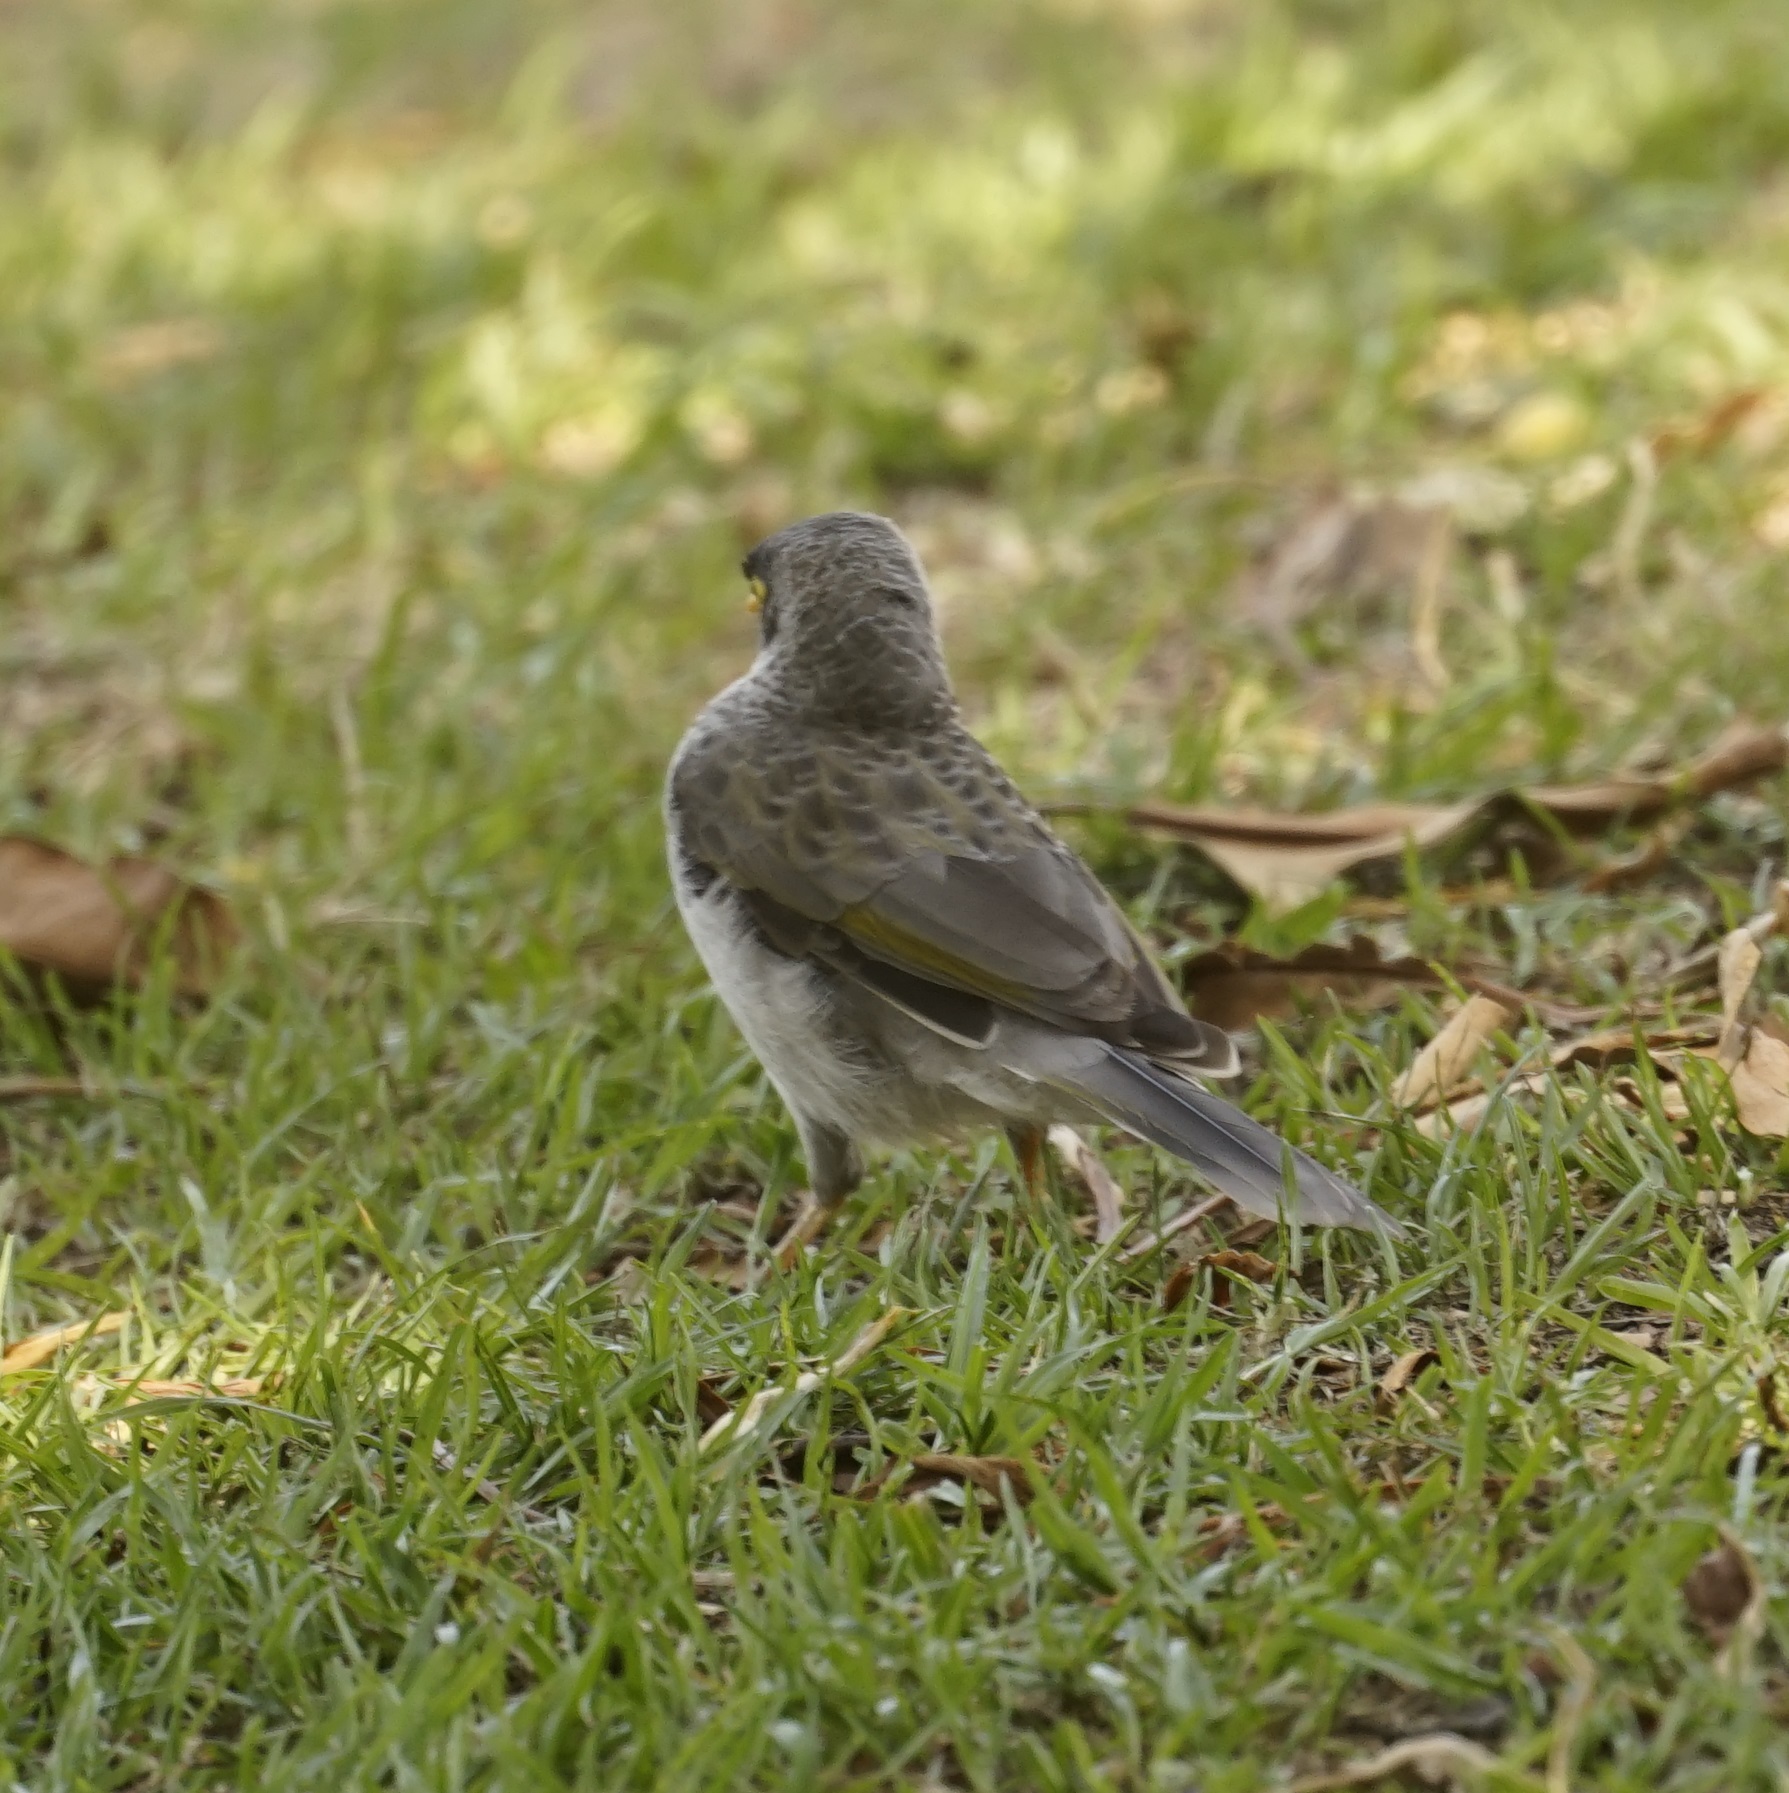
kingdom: Animalia
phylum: Chordata
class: Aves
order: Passeriformes
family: Meliphagidae
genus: Manorina
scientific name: Manorina melanocephala
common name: Noisy miner
